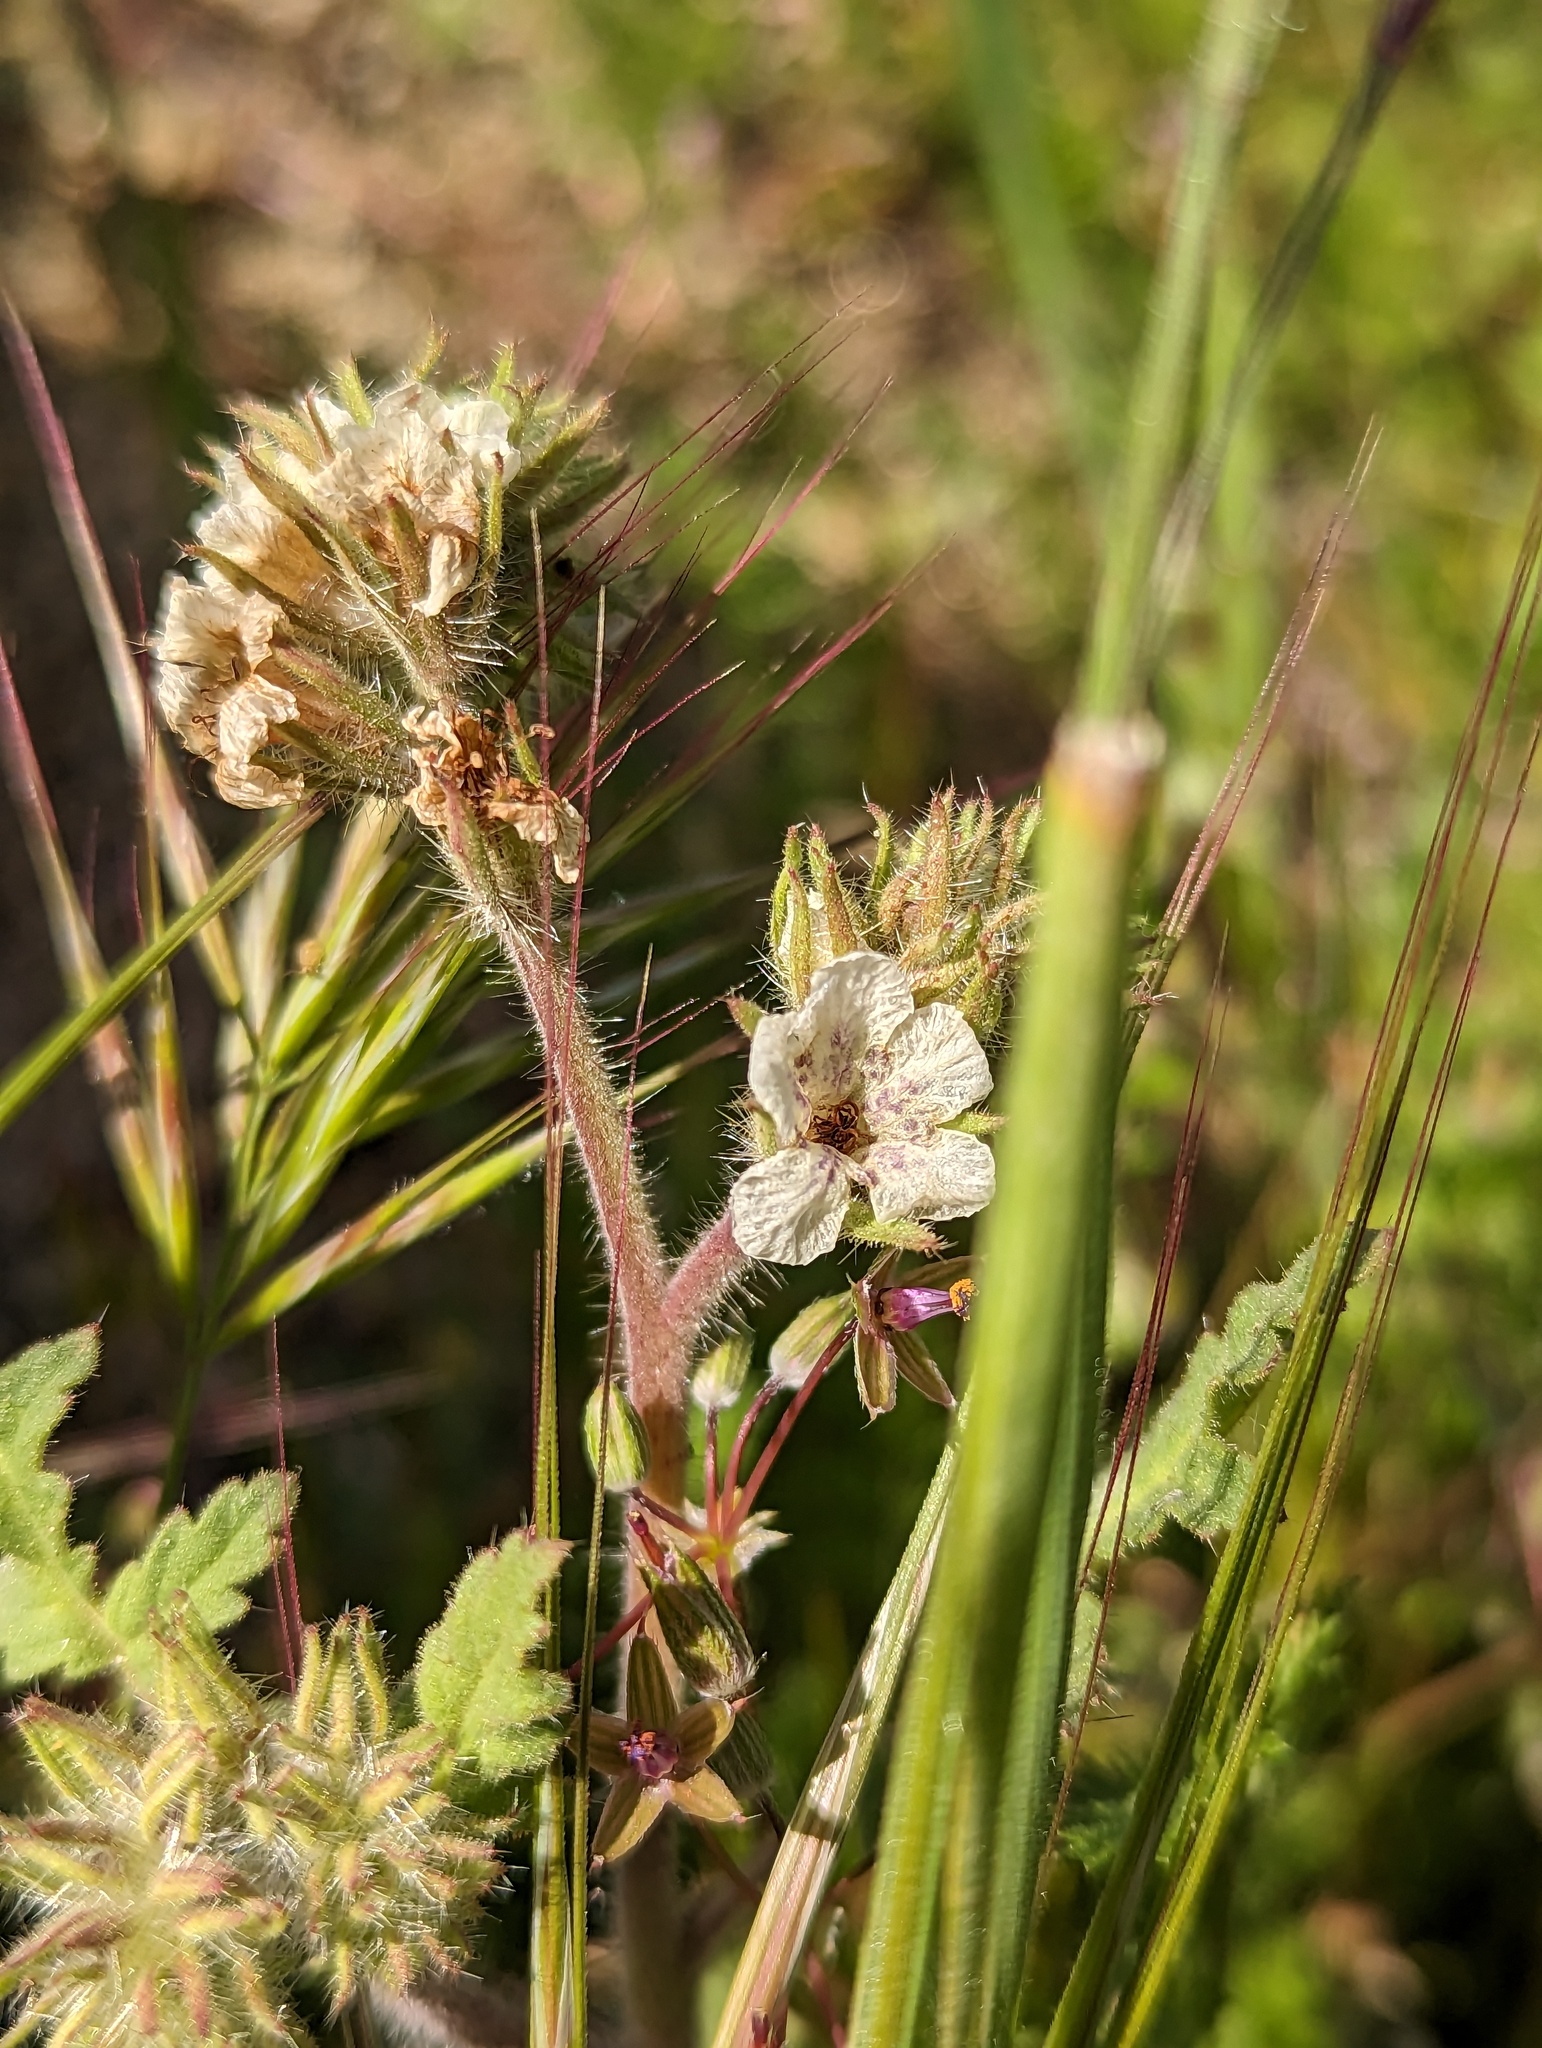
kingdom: Plantae
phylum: Tracheophyta
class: Magnoliopsida
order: Boraginales
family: Hydrophyllaceae
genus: Phacelia
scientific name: Phacelia cicutaria
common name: Caterpillar phacelia
